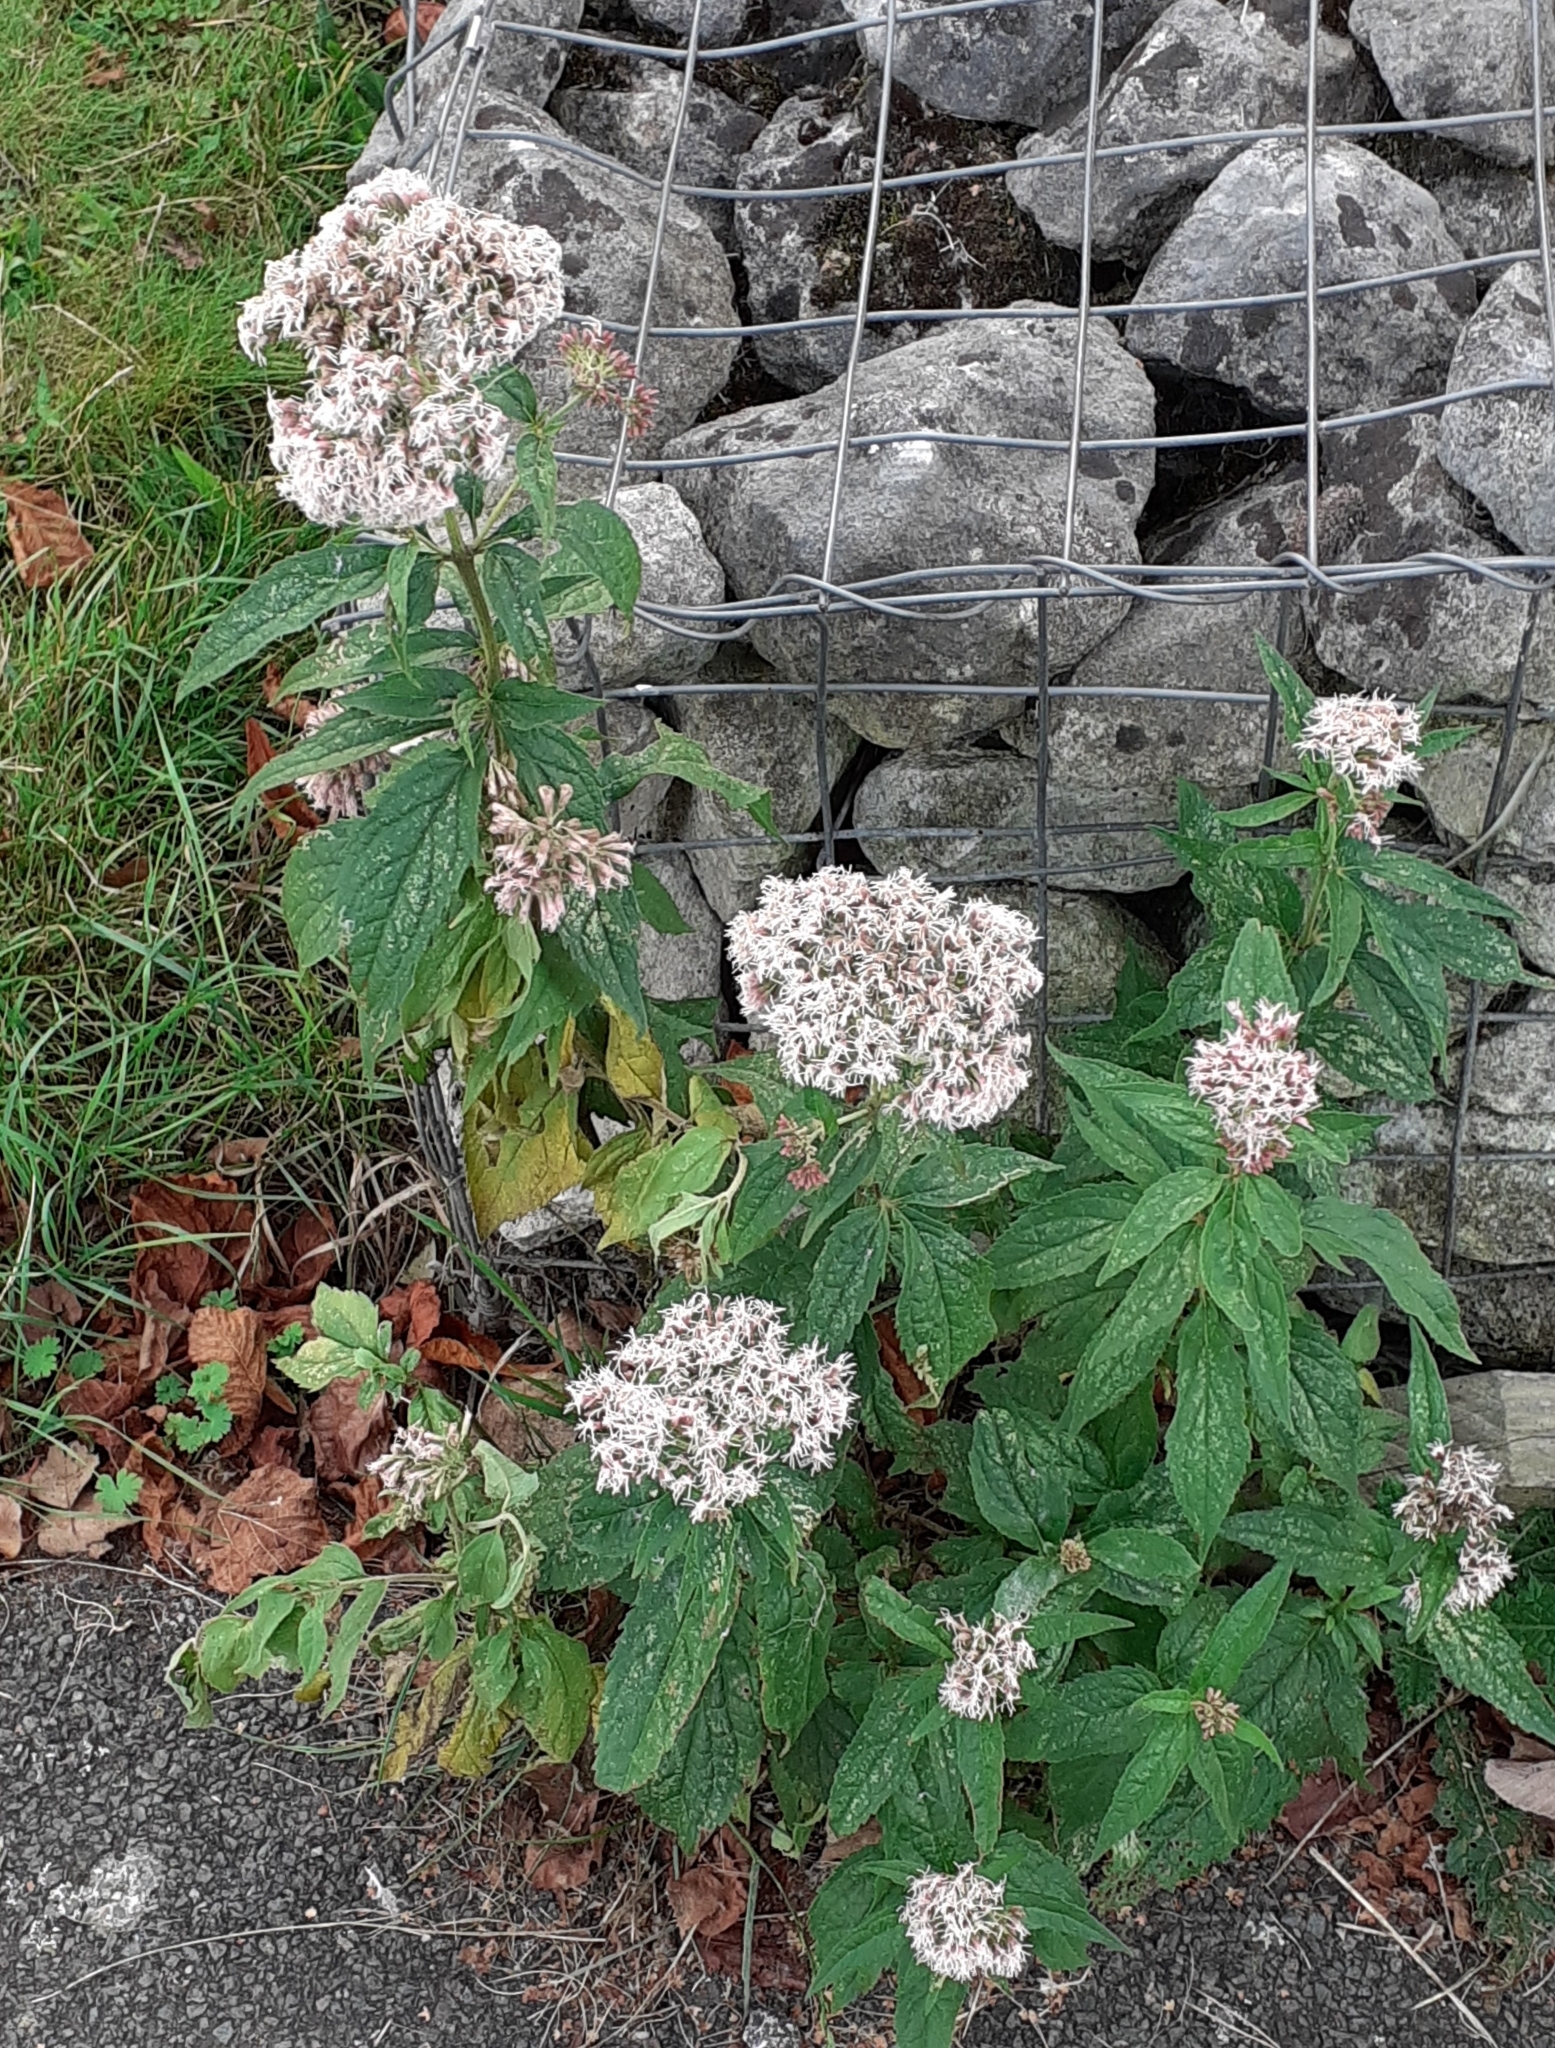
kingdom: Plantae
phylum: Tracheophyta
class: Magnoliopsida
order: Asterales
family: Asteraceae
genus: Eupatorium
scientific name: Eupatorium cannabinum
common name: Hemp-agrimony
